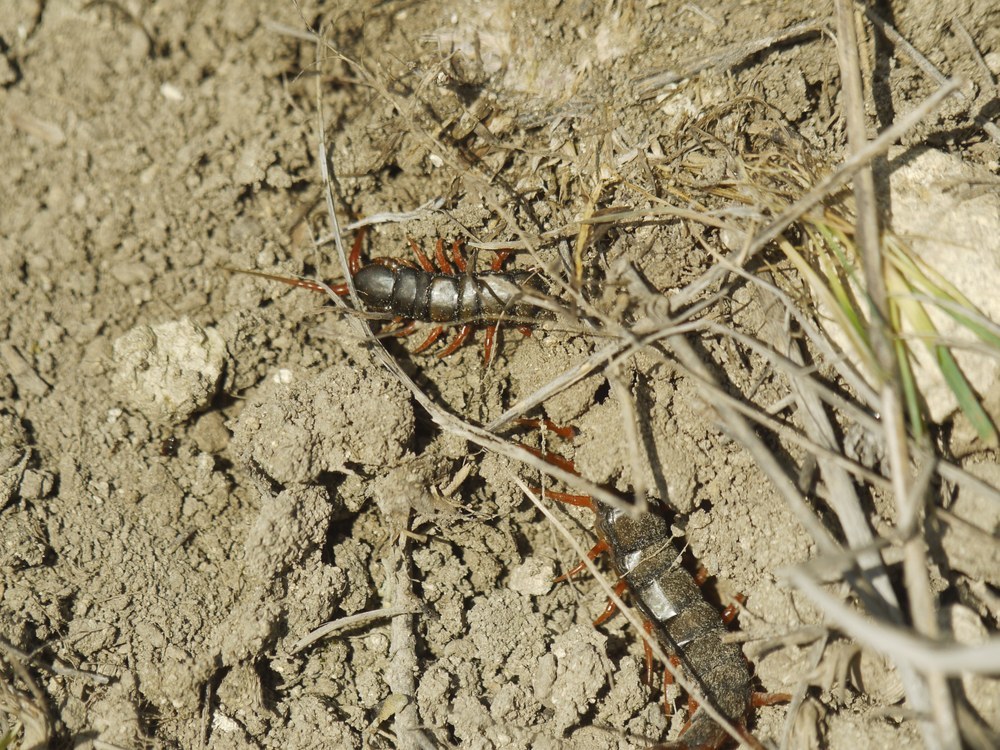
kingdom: Animalia
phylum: Arthropoda
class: Chilopoda
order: Scolopendromorpha
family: Scolopendridae
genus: Scolopendra
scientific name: Scolopendra cingulata
